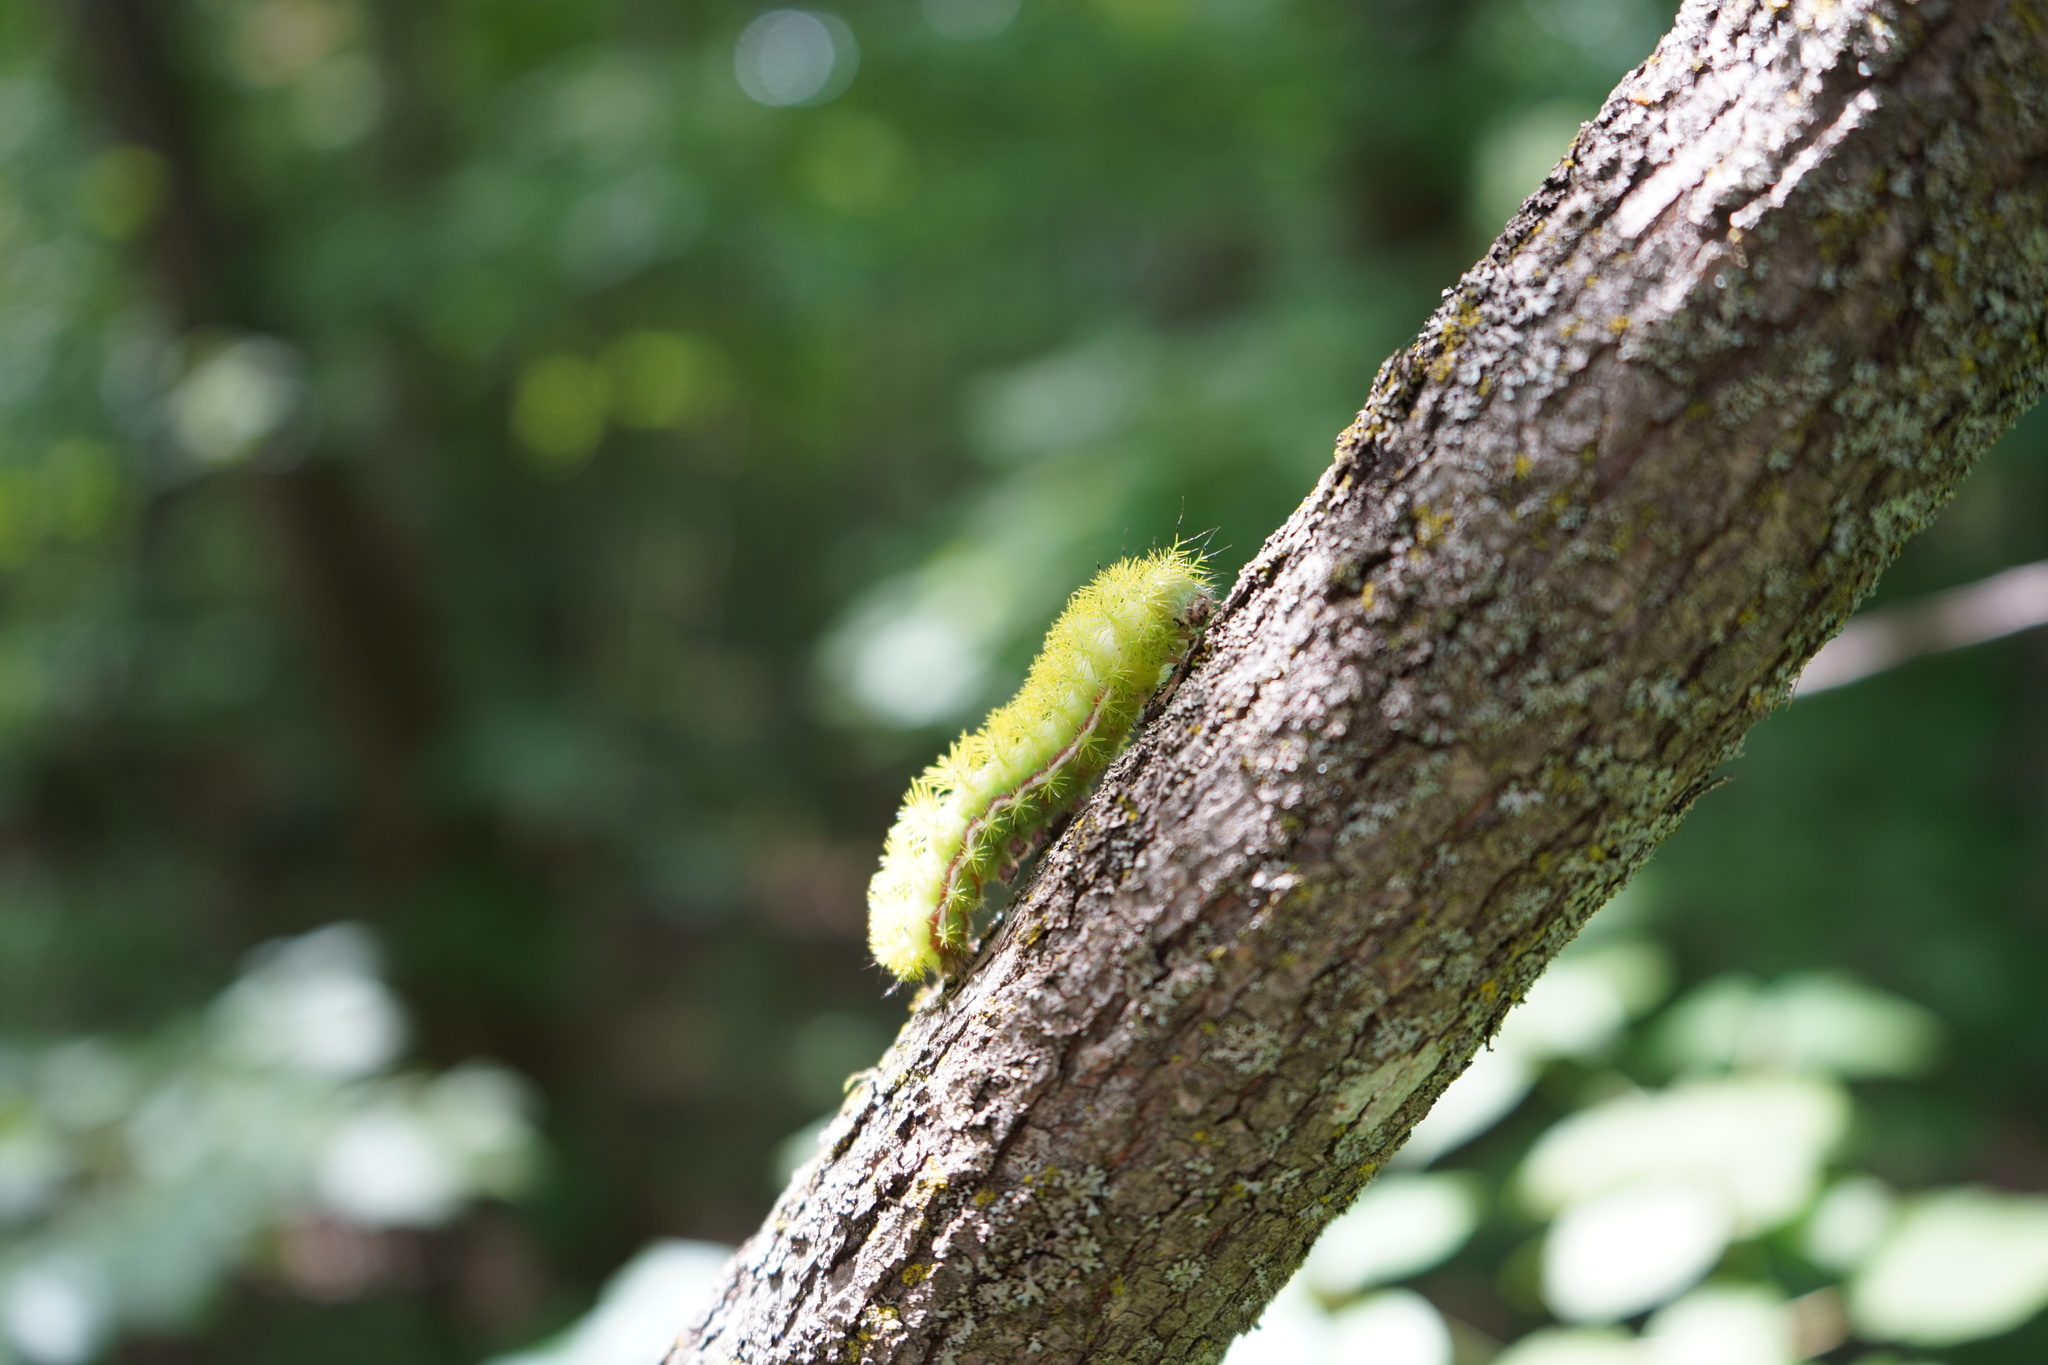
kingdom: Animalia
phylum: Arthropoda
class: Insecta
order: Lepidoptera
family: Saturniidae
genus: Automeris
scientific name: Automeris io
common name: Io moth
